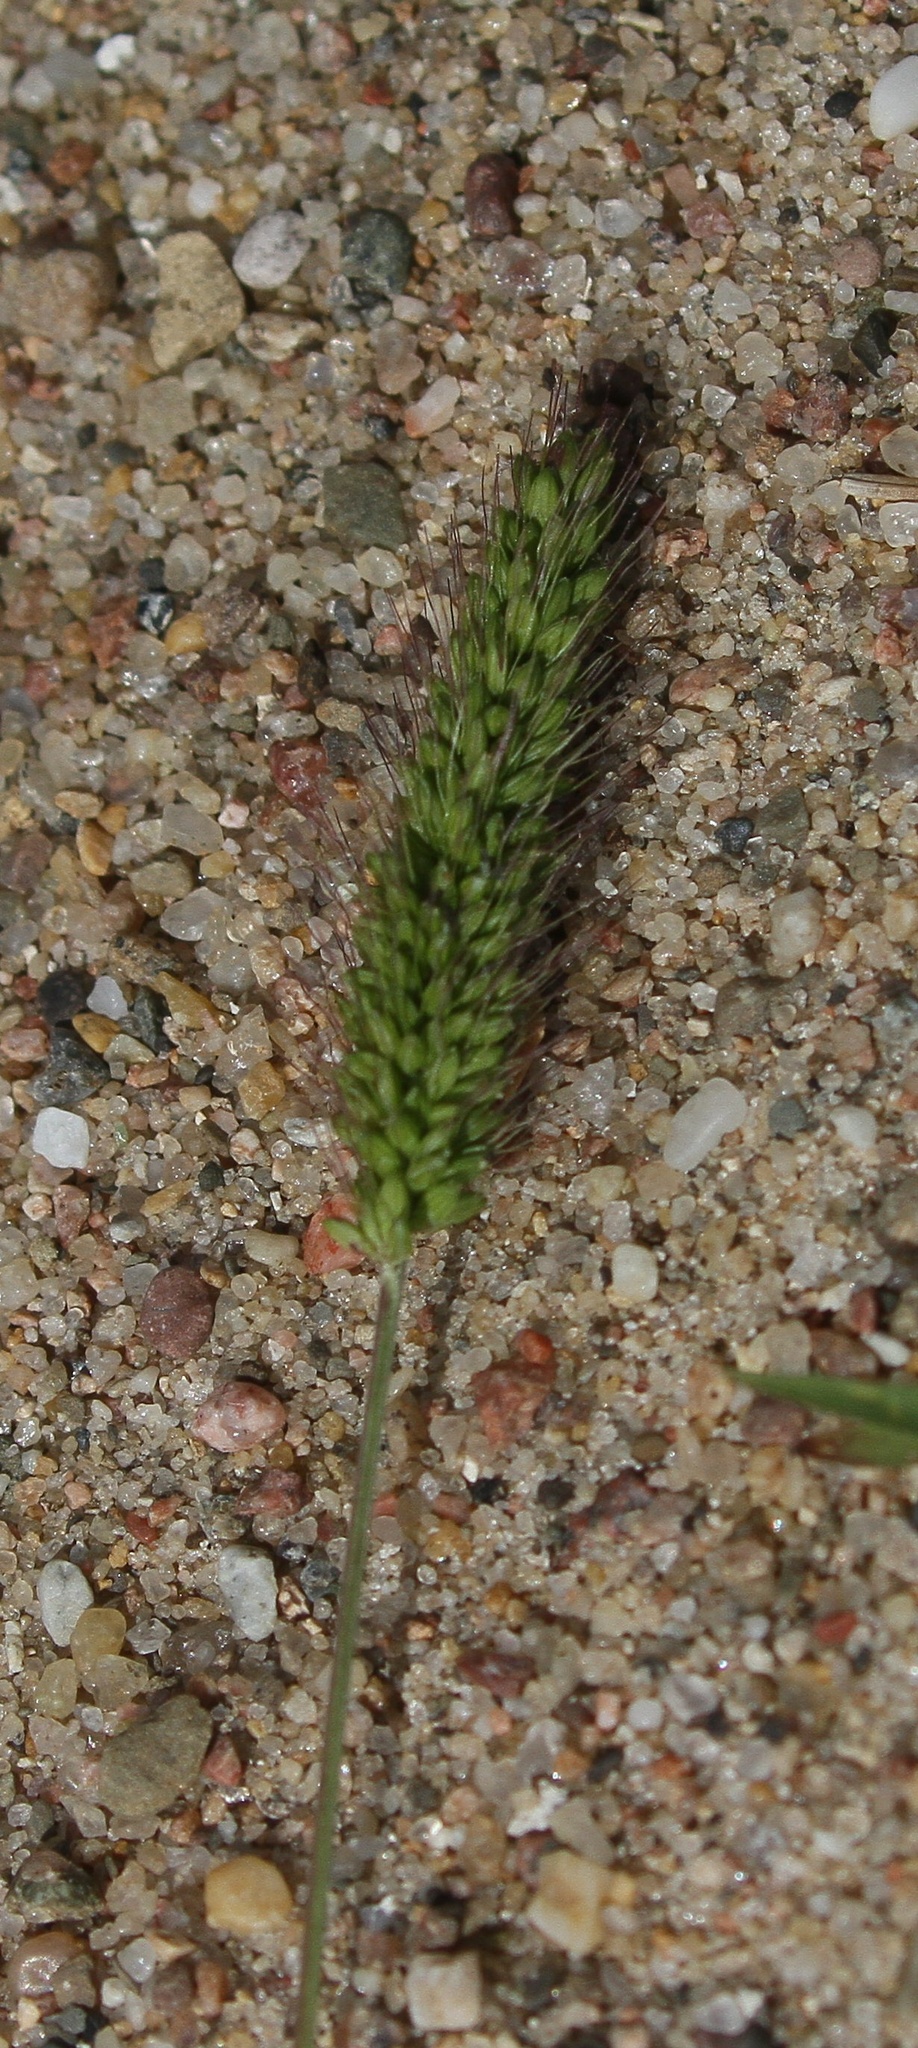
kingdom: Plantae
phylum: Tracheophyta
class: Liliopsida
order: Poales
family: Poaceae
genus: Setaria
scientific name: Setaria viridis
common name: Green bristlegrass
